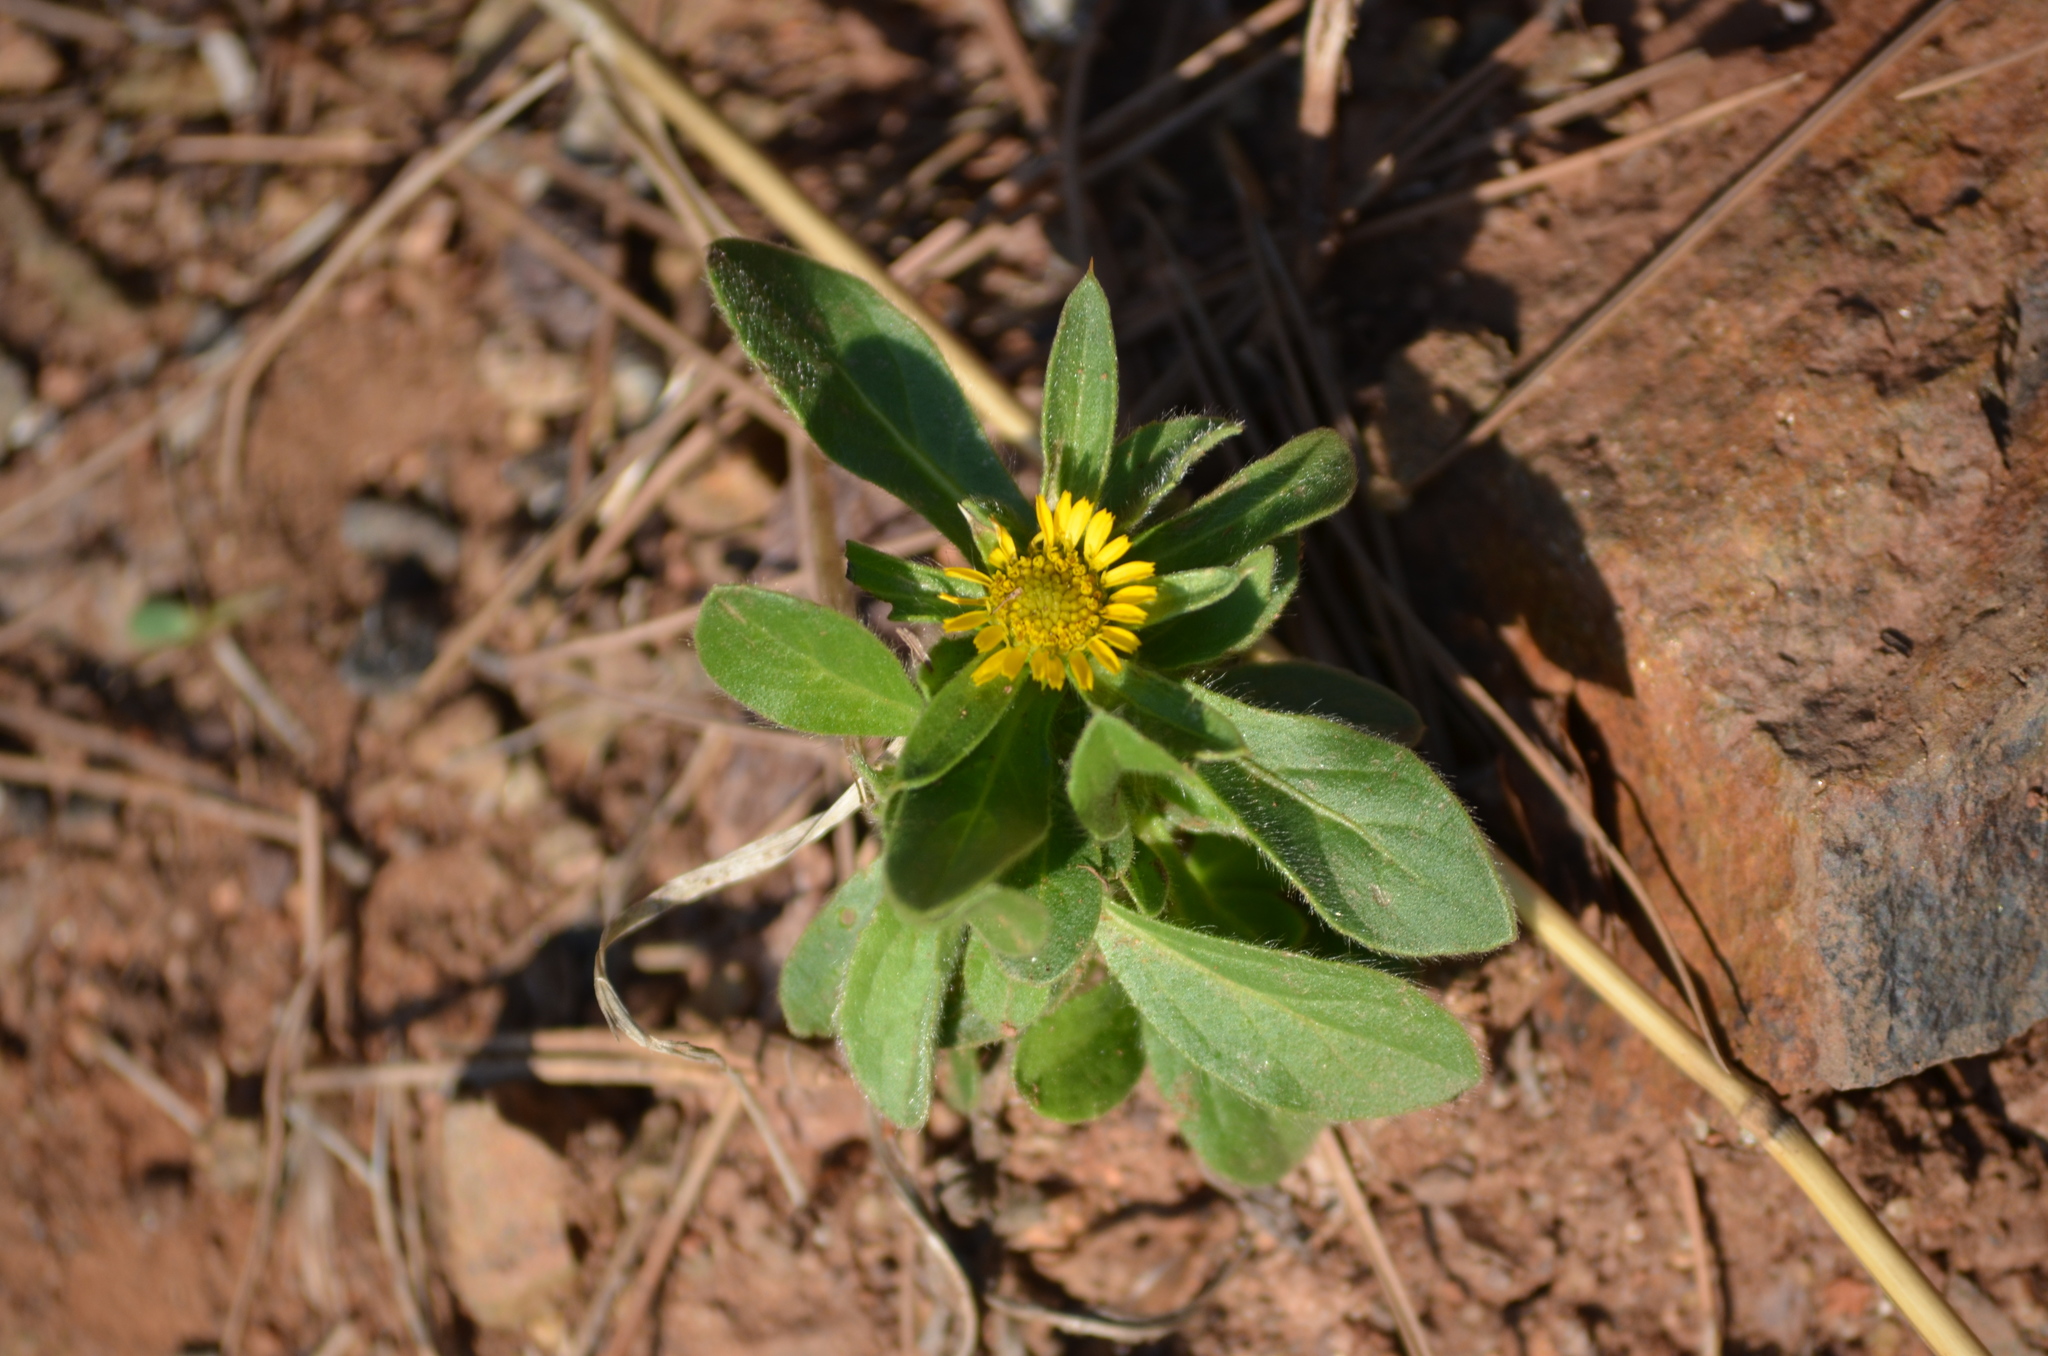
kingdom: Plantae
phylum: Tracheophyta
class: Magnoliopsida
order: Asterales
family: Asteraceae
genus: Pallenis
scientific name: Pallenis spinosa
